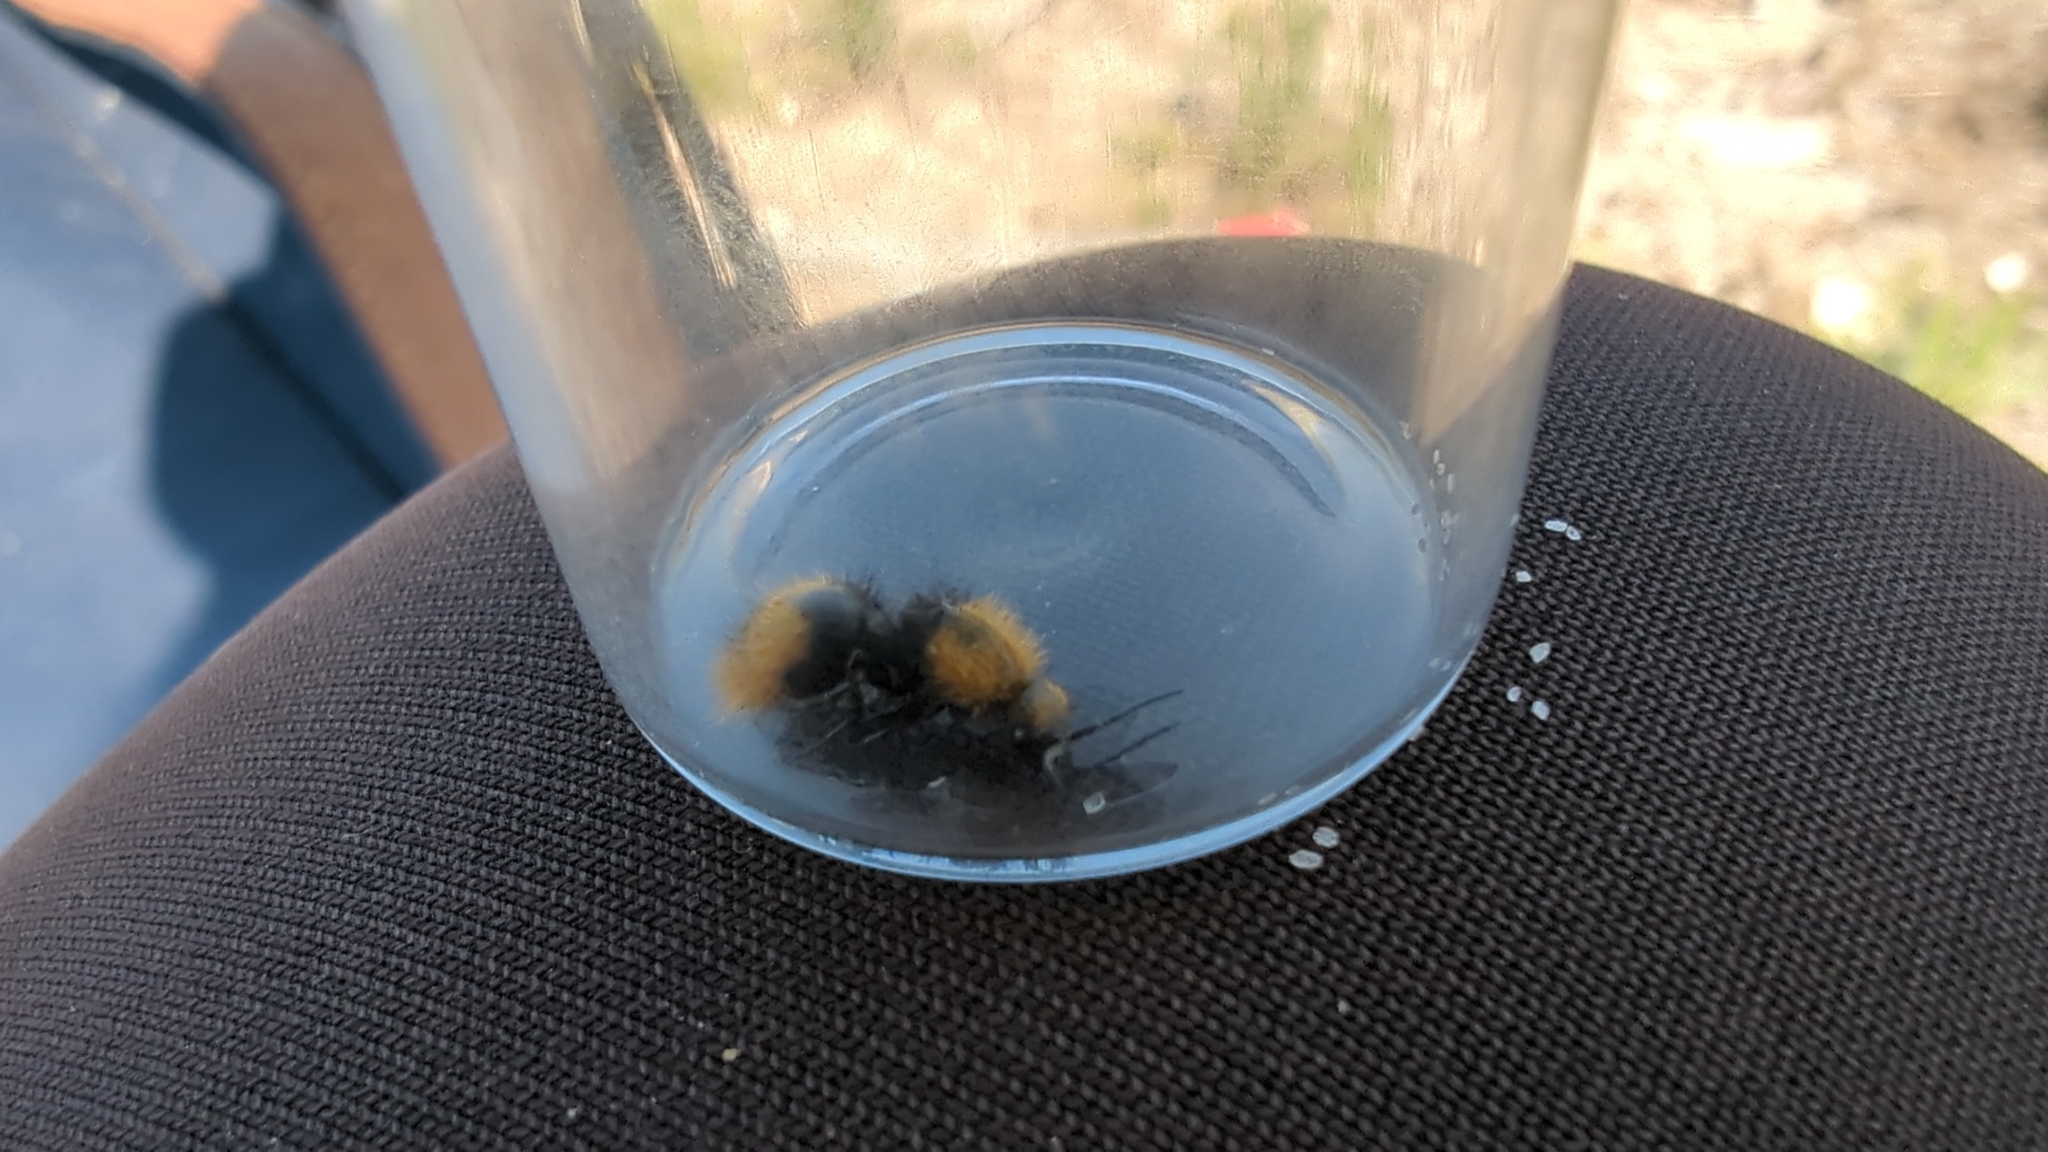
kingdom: Animalia
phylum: Arthropoda
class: Insecta
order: Hymenoptera
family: Mutillidae
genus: Dasymutilla
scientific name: Dasymutilla
